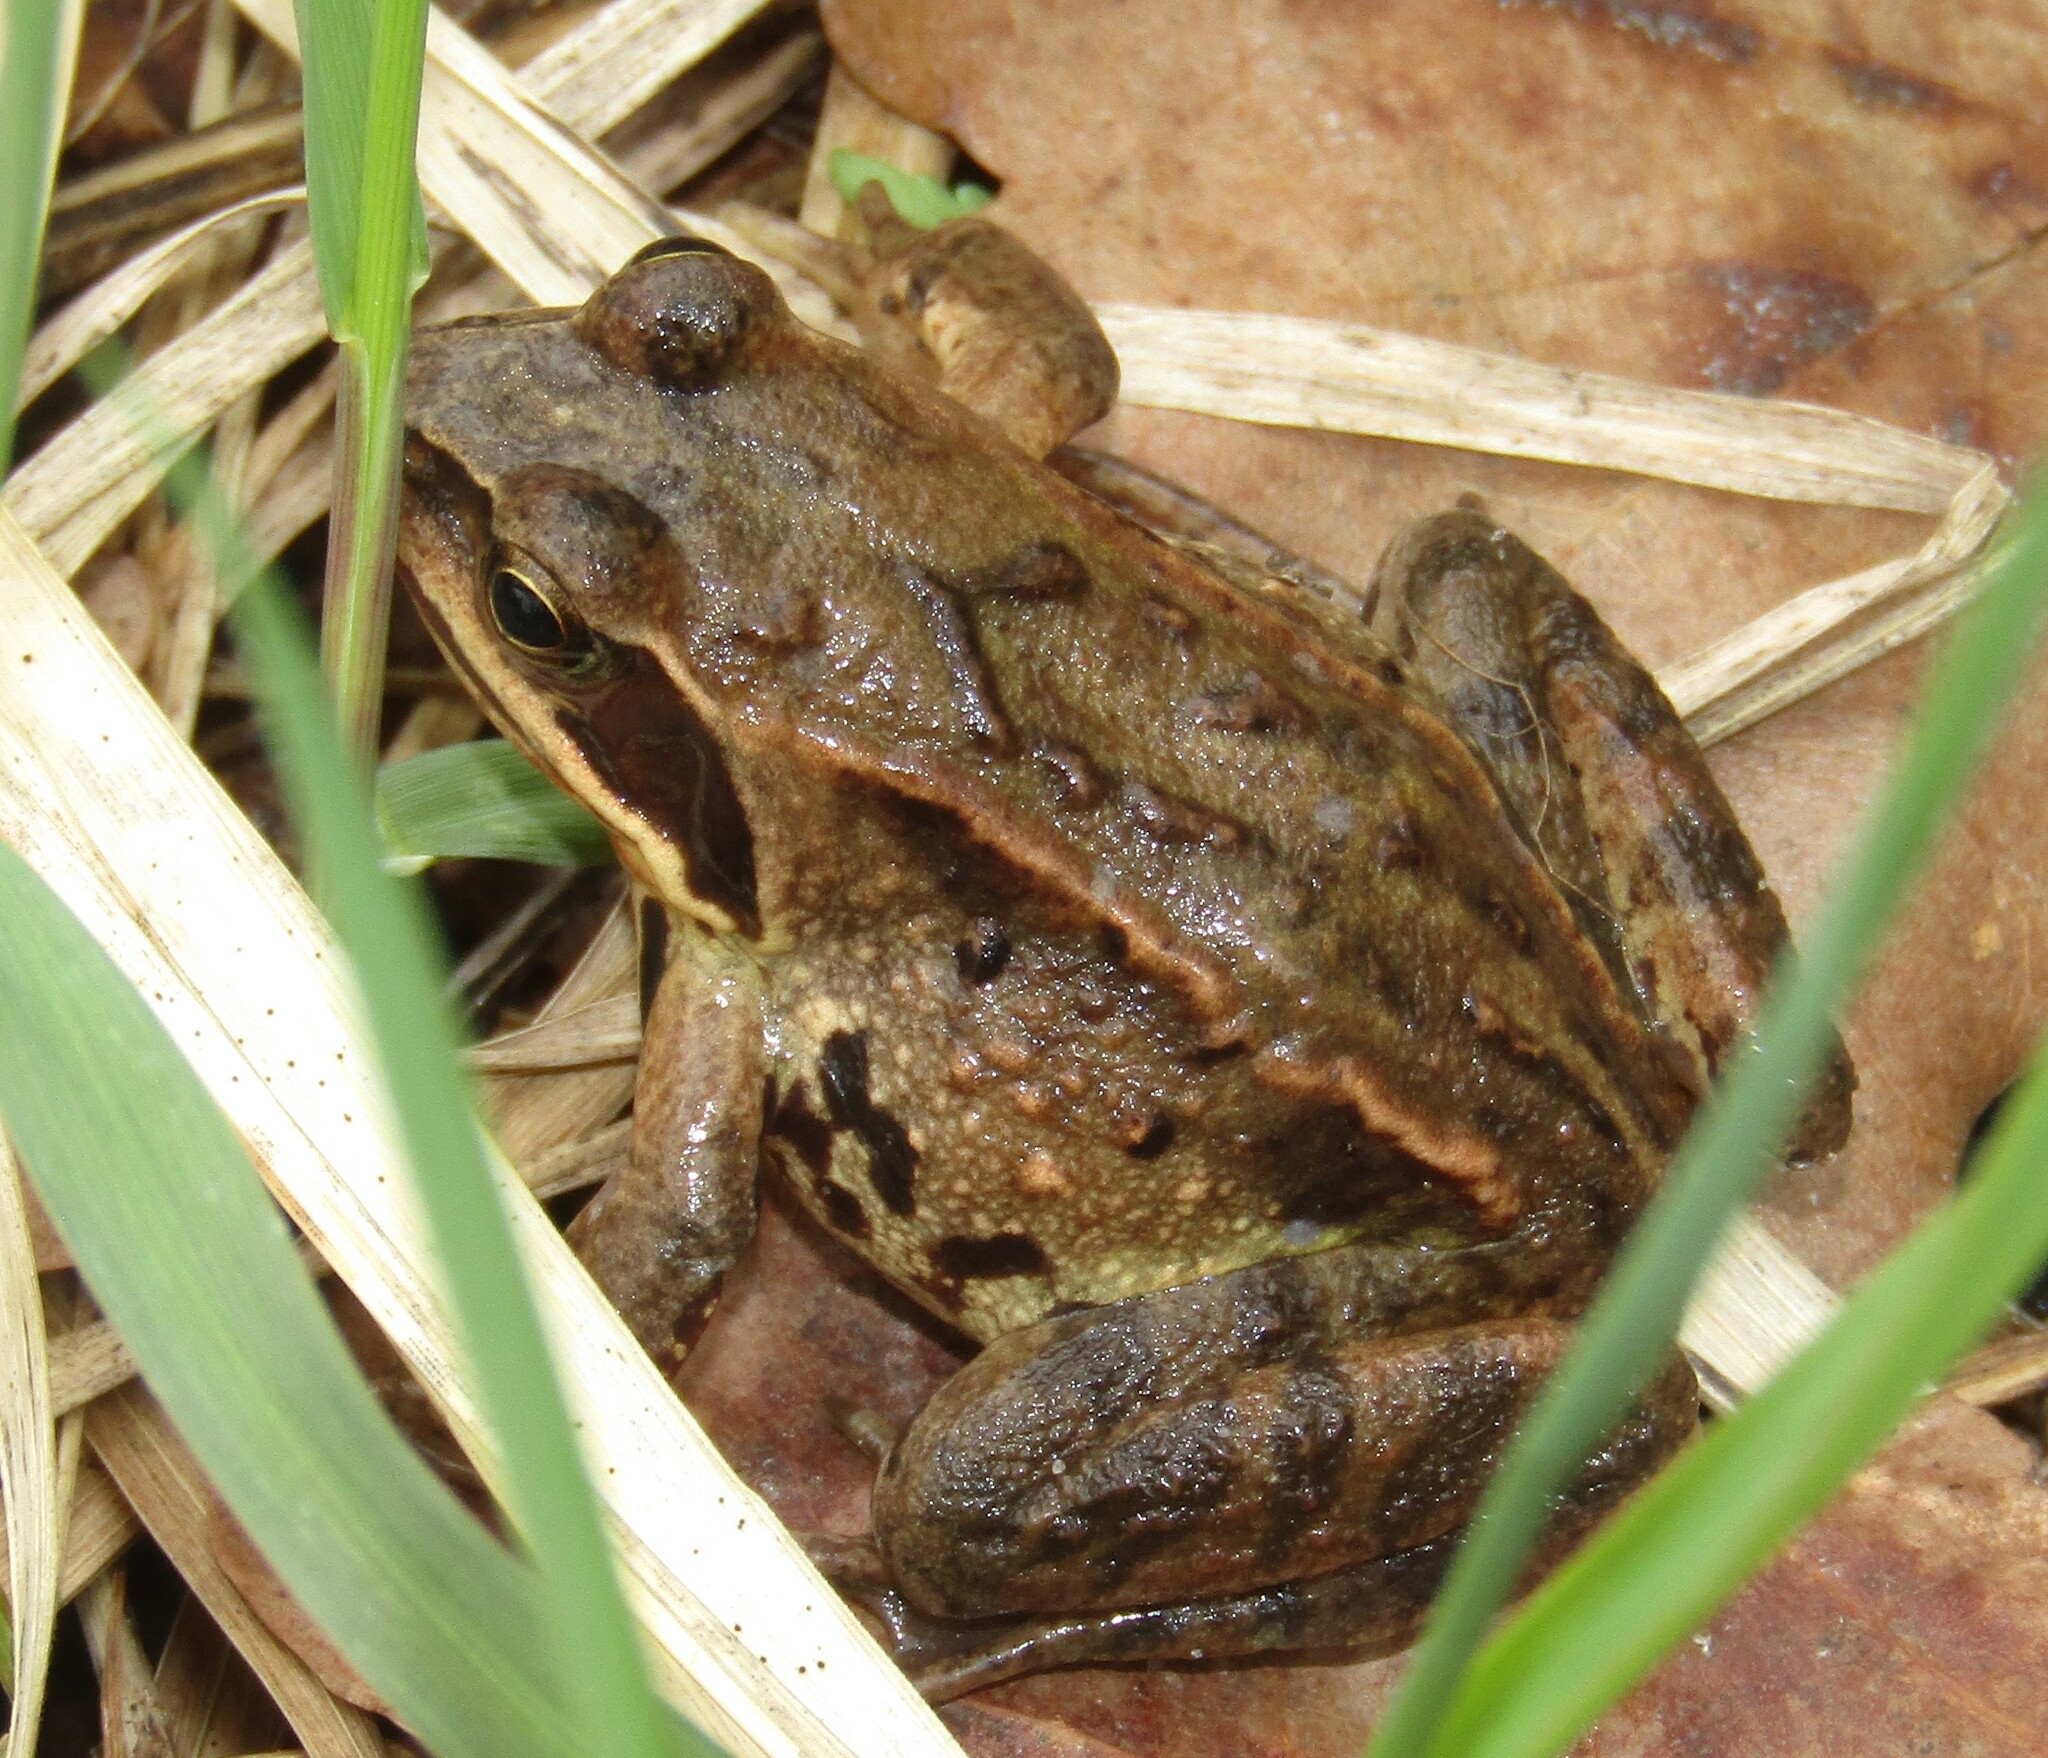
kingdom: Animalia
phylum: Chordata
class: Amphibia
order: Anura
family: Ranidae
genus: Rana
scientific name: Rana arvalis
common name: Moor frog
